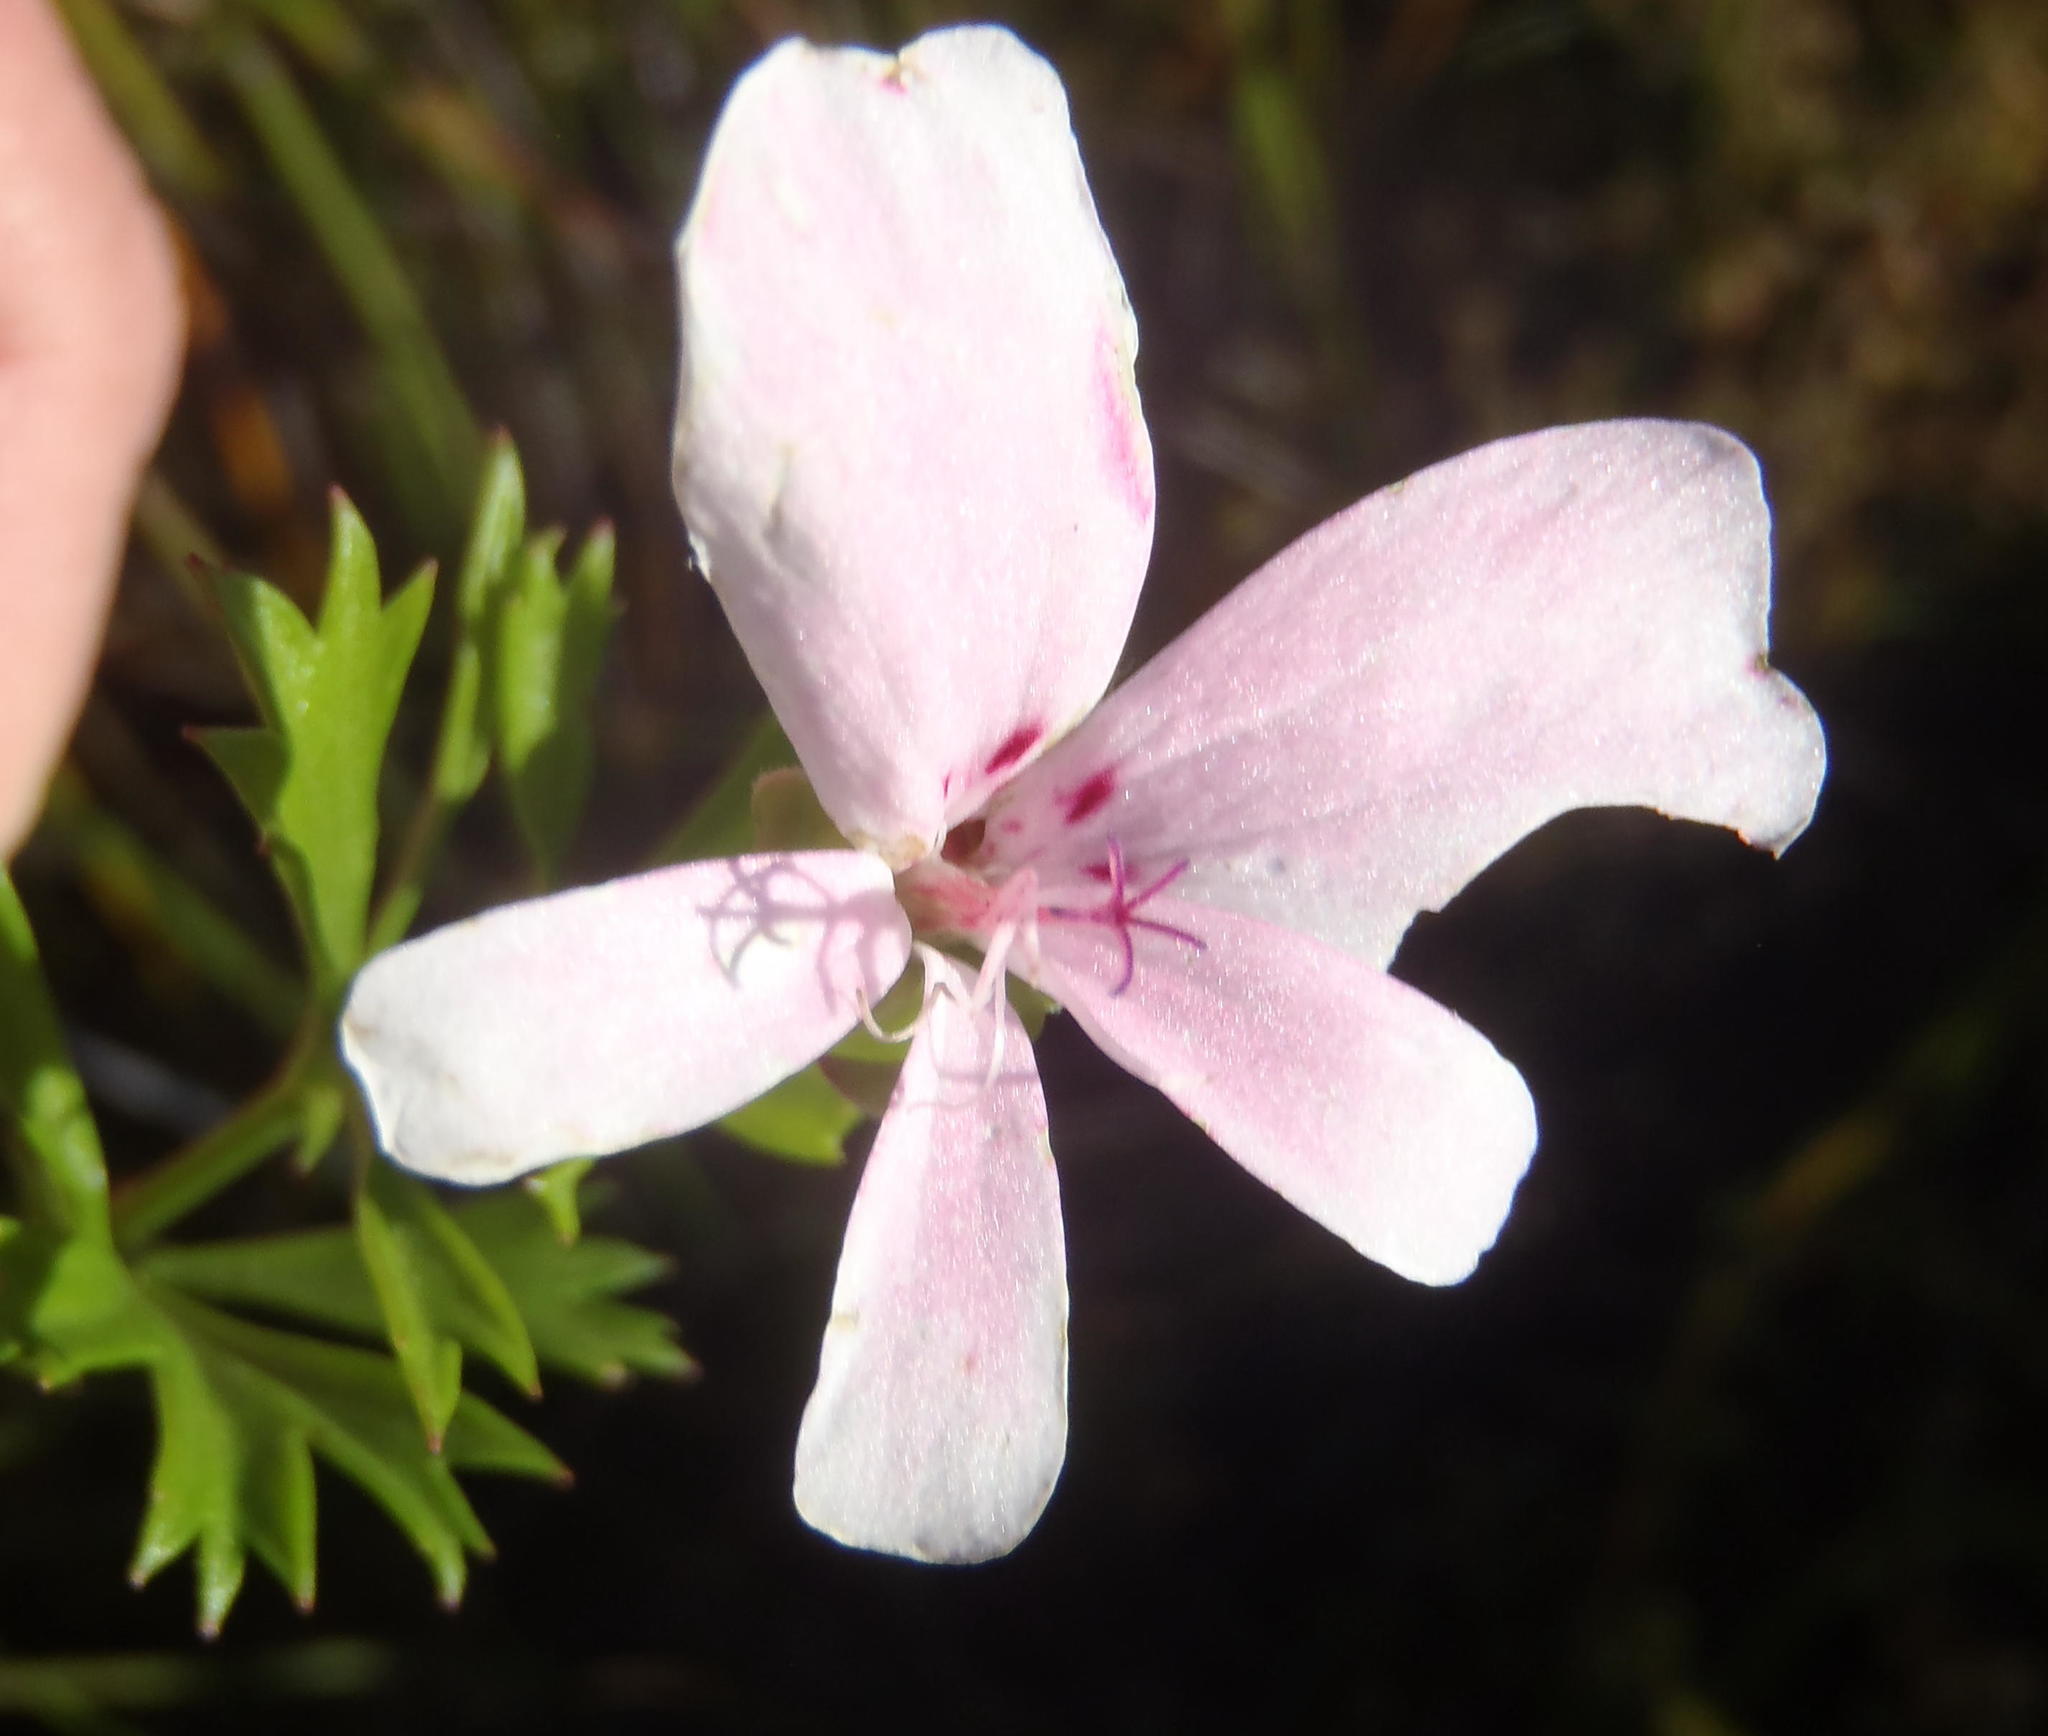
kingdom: Plantae
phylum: Tracheophyta
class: Magnoliopsida
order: Geraniales
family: Geraniaceae
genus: Pelargonium
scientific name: Pelargonium ternatum
